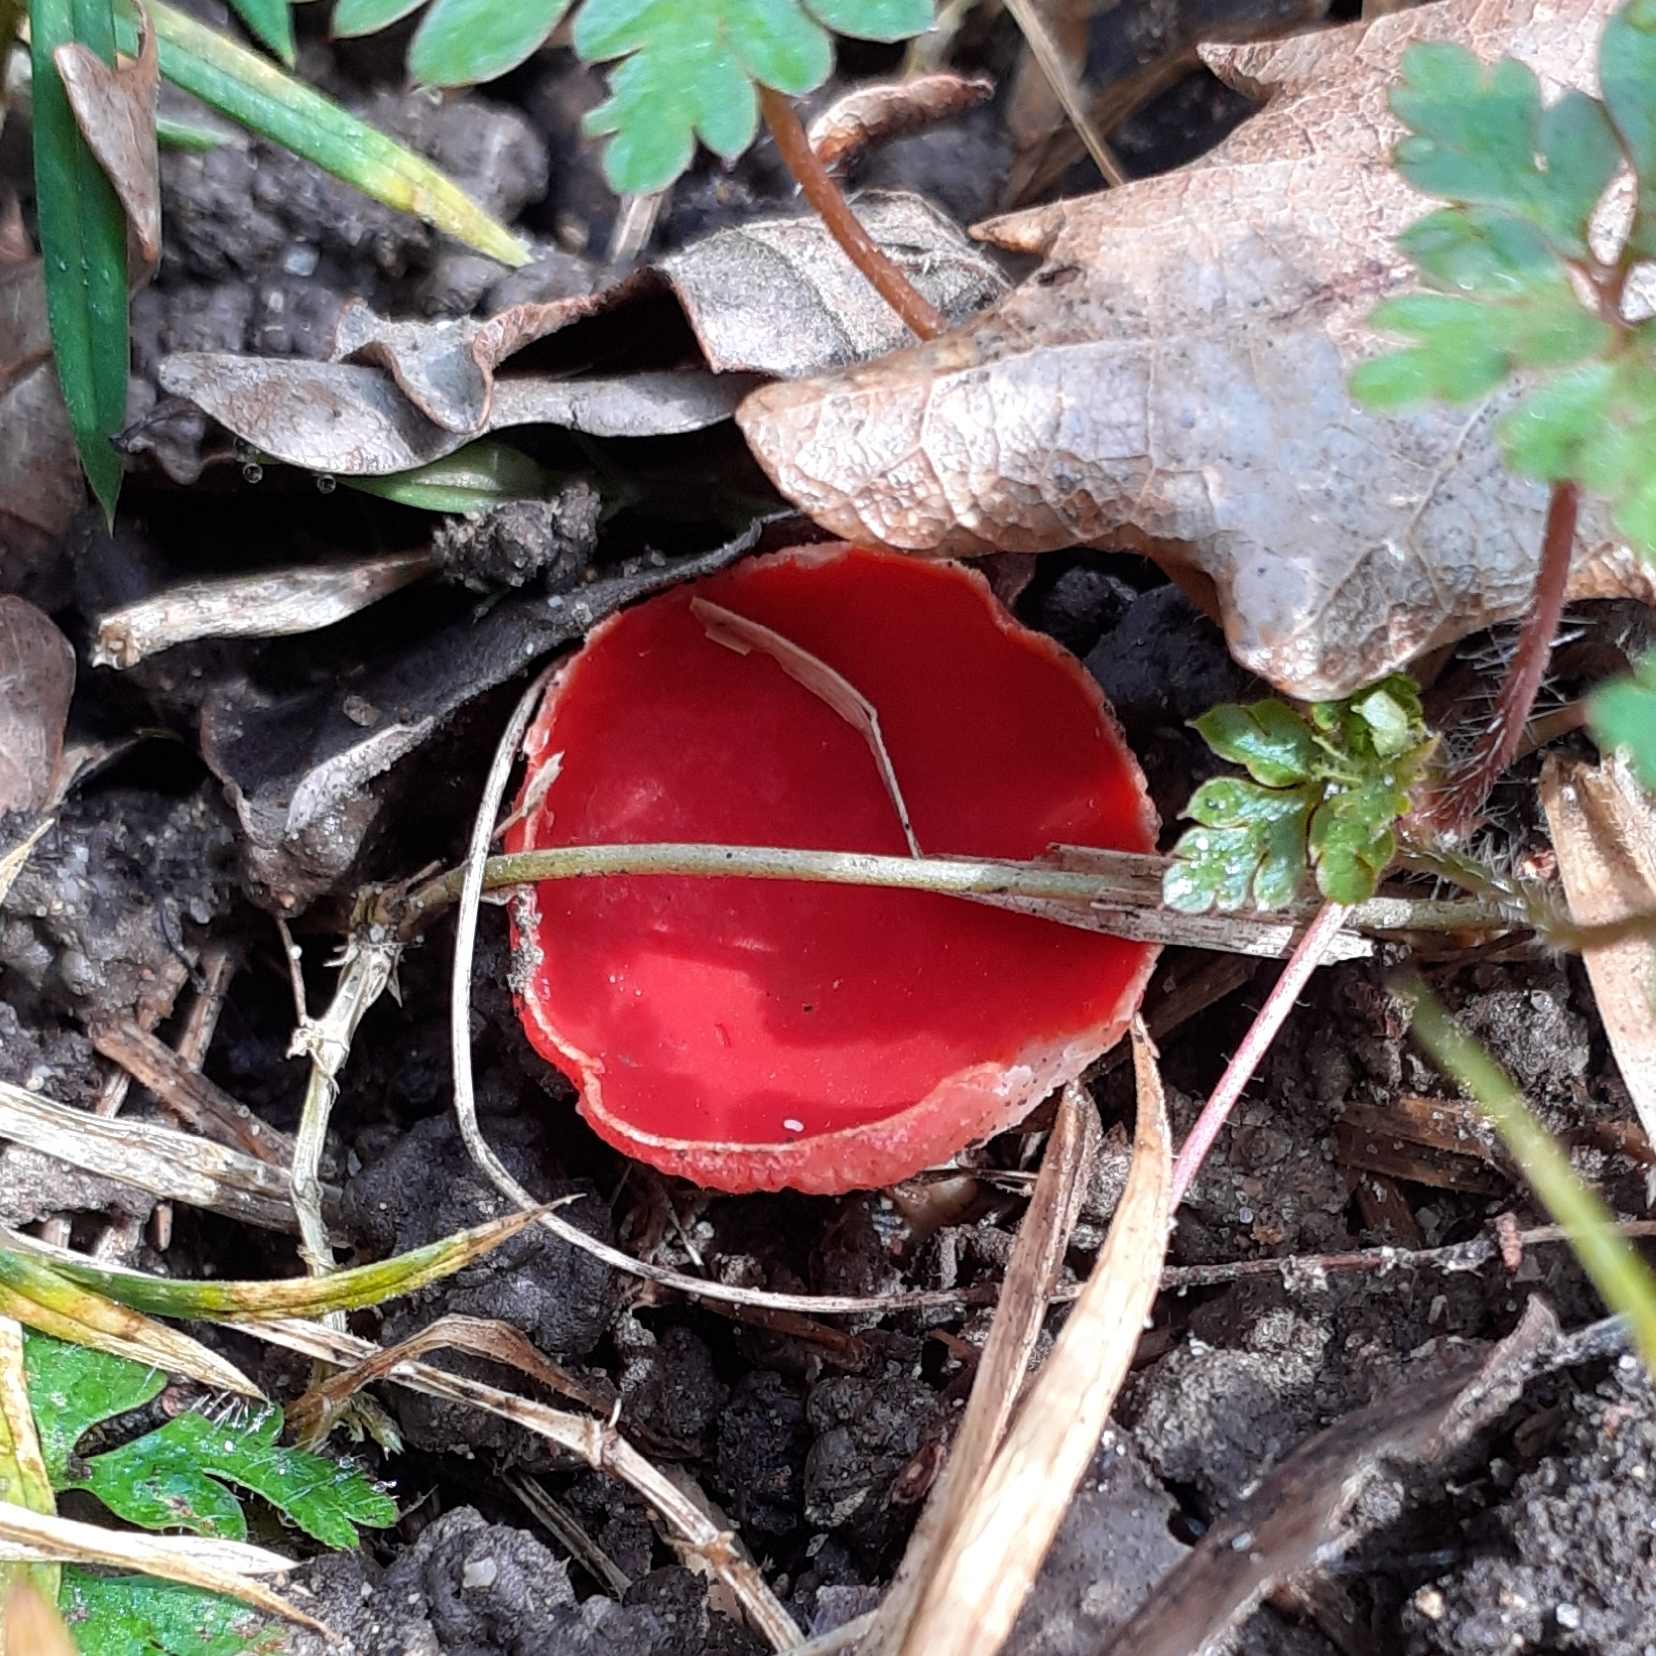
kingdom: Fungi
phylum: Ascomycota
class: Pezizomycetes
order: Pezizales
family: Sarcoscyphaceae
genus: Sarcoscypha
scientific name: Sarcoscypha
